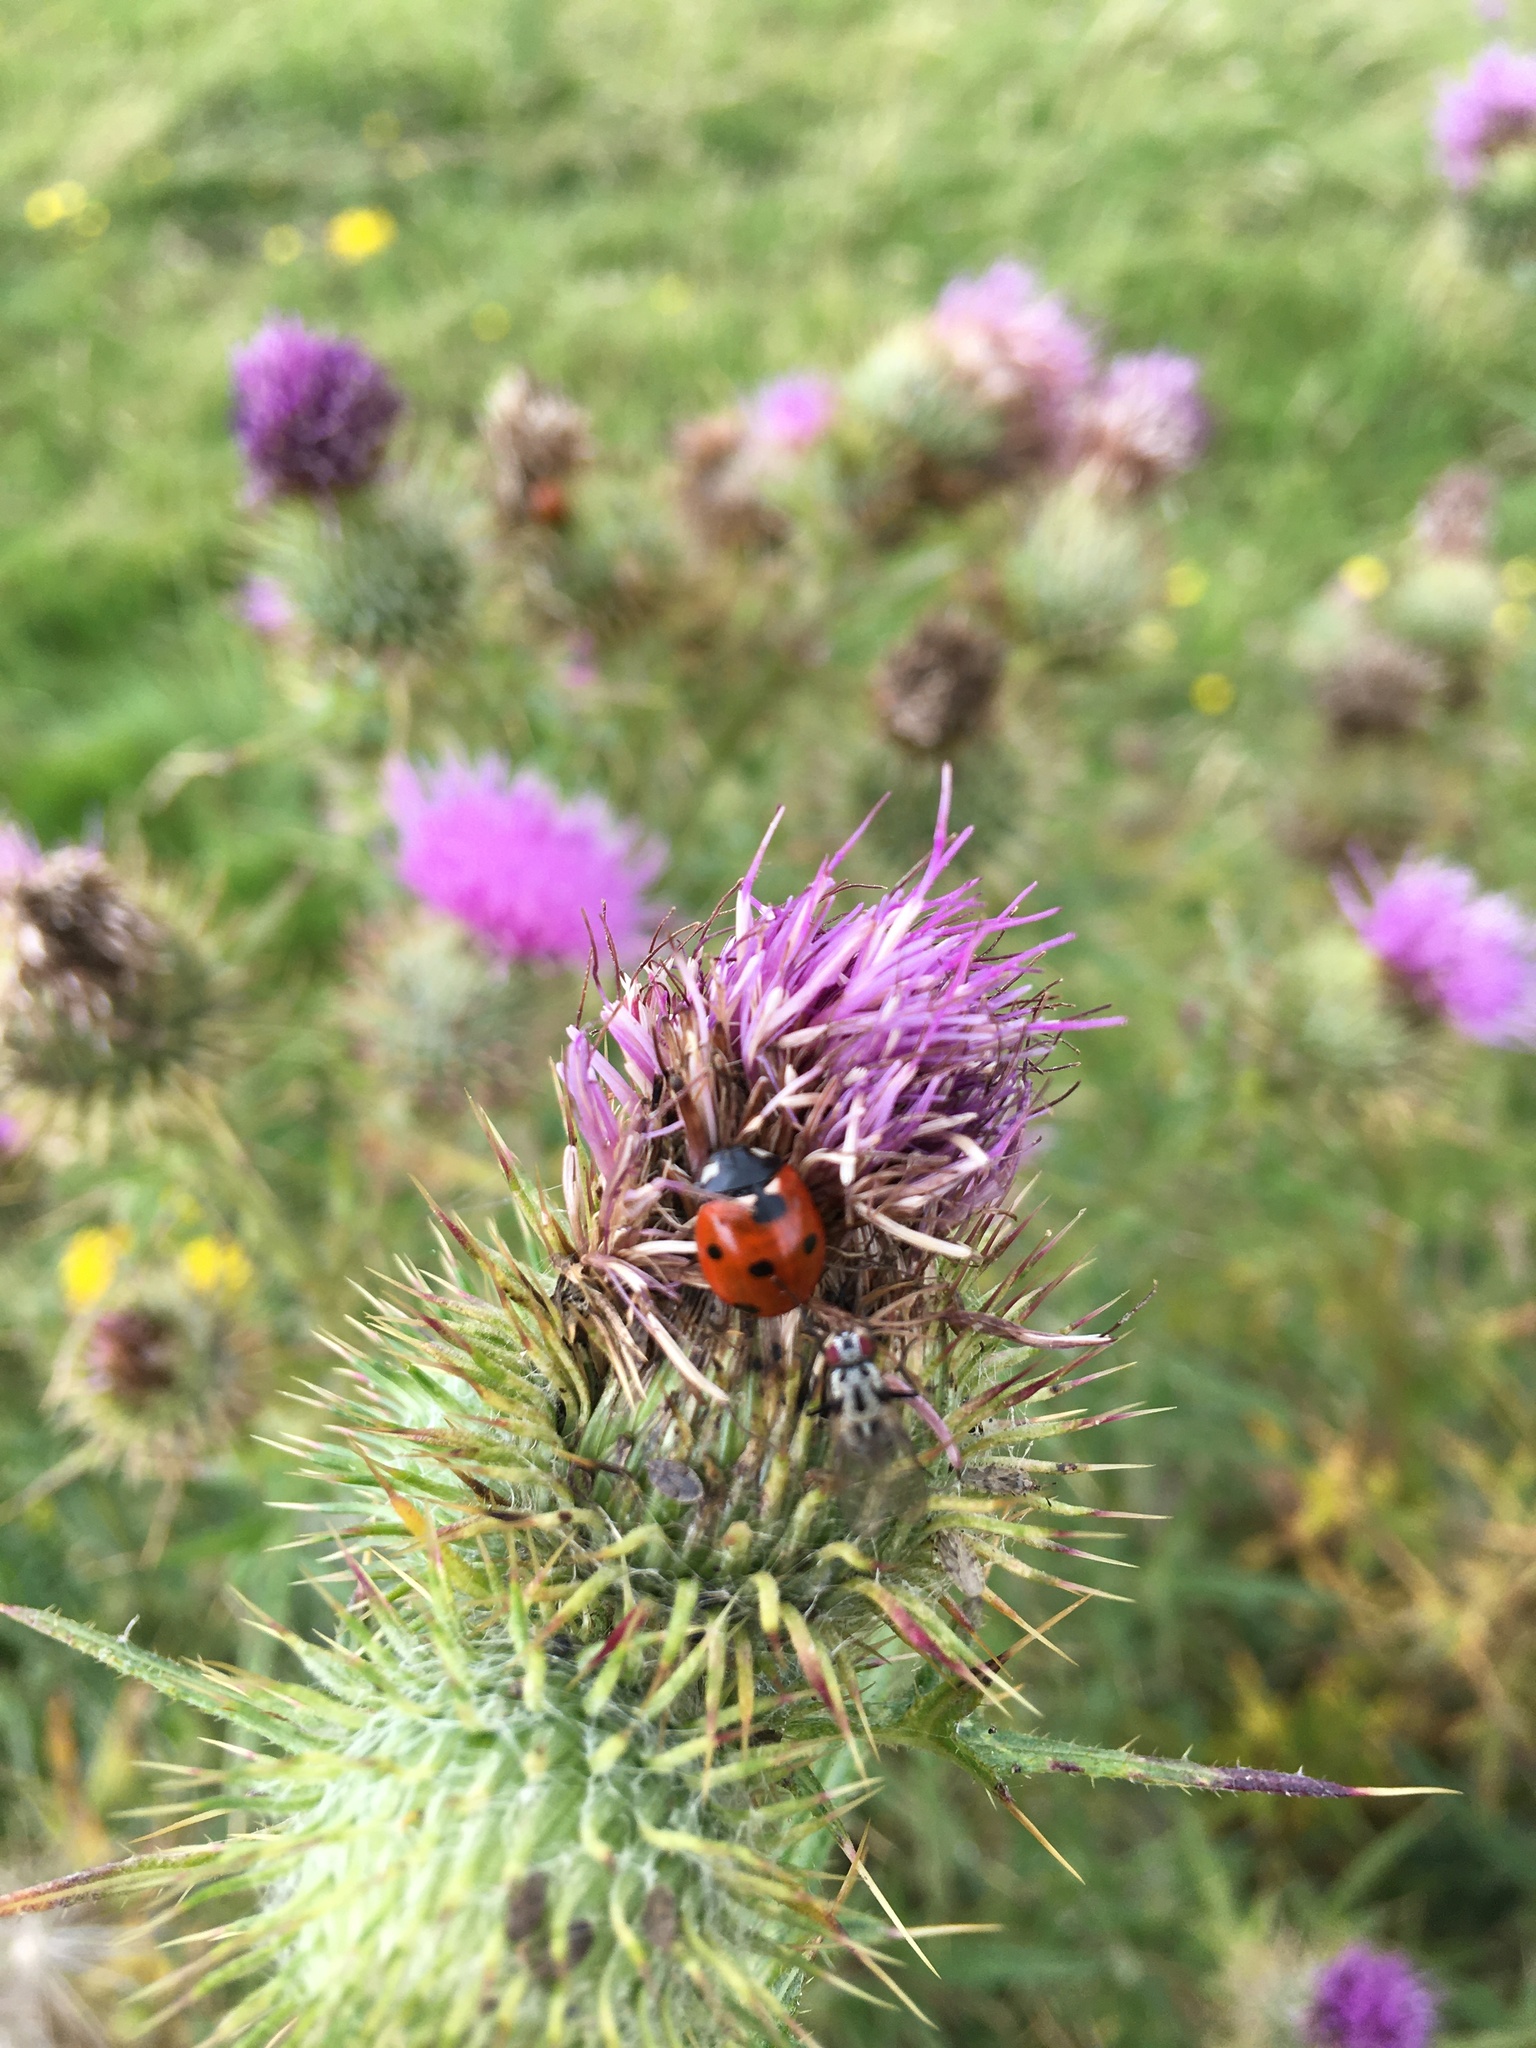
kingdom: Animalia
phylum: Arthropoda
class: Insecta
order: Coleoptera
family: Coccinellidae
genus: Coccinella
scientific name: Coccinella septempunctata
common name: Sevenspotted lady beetle
